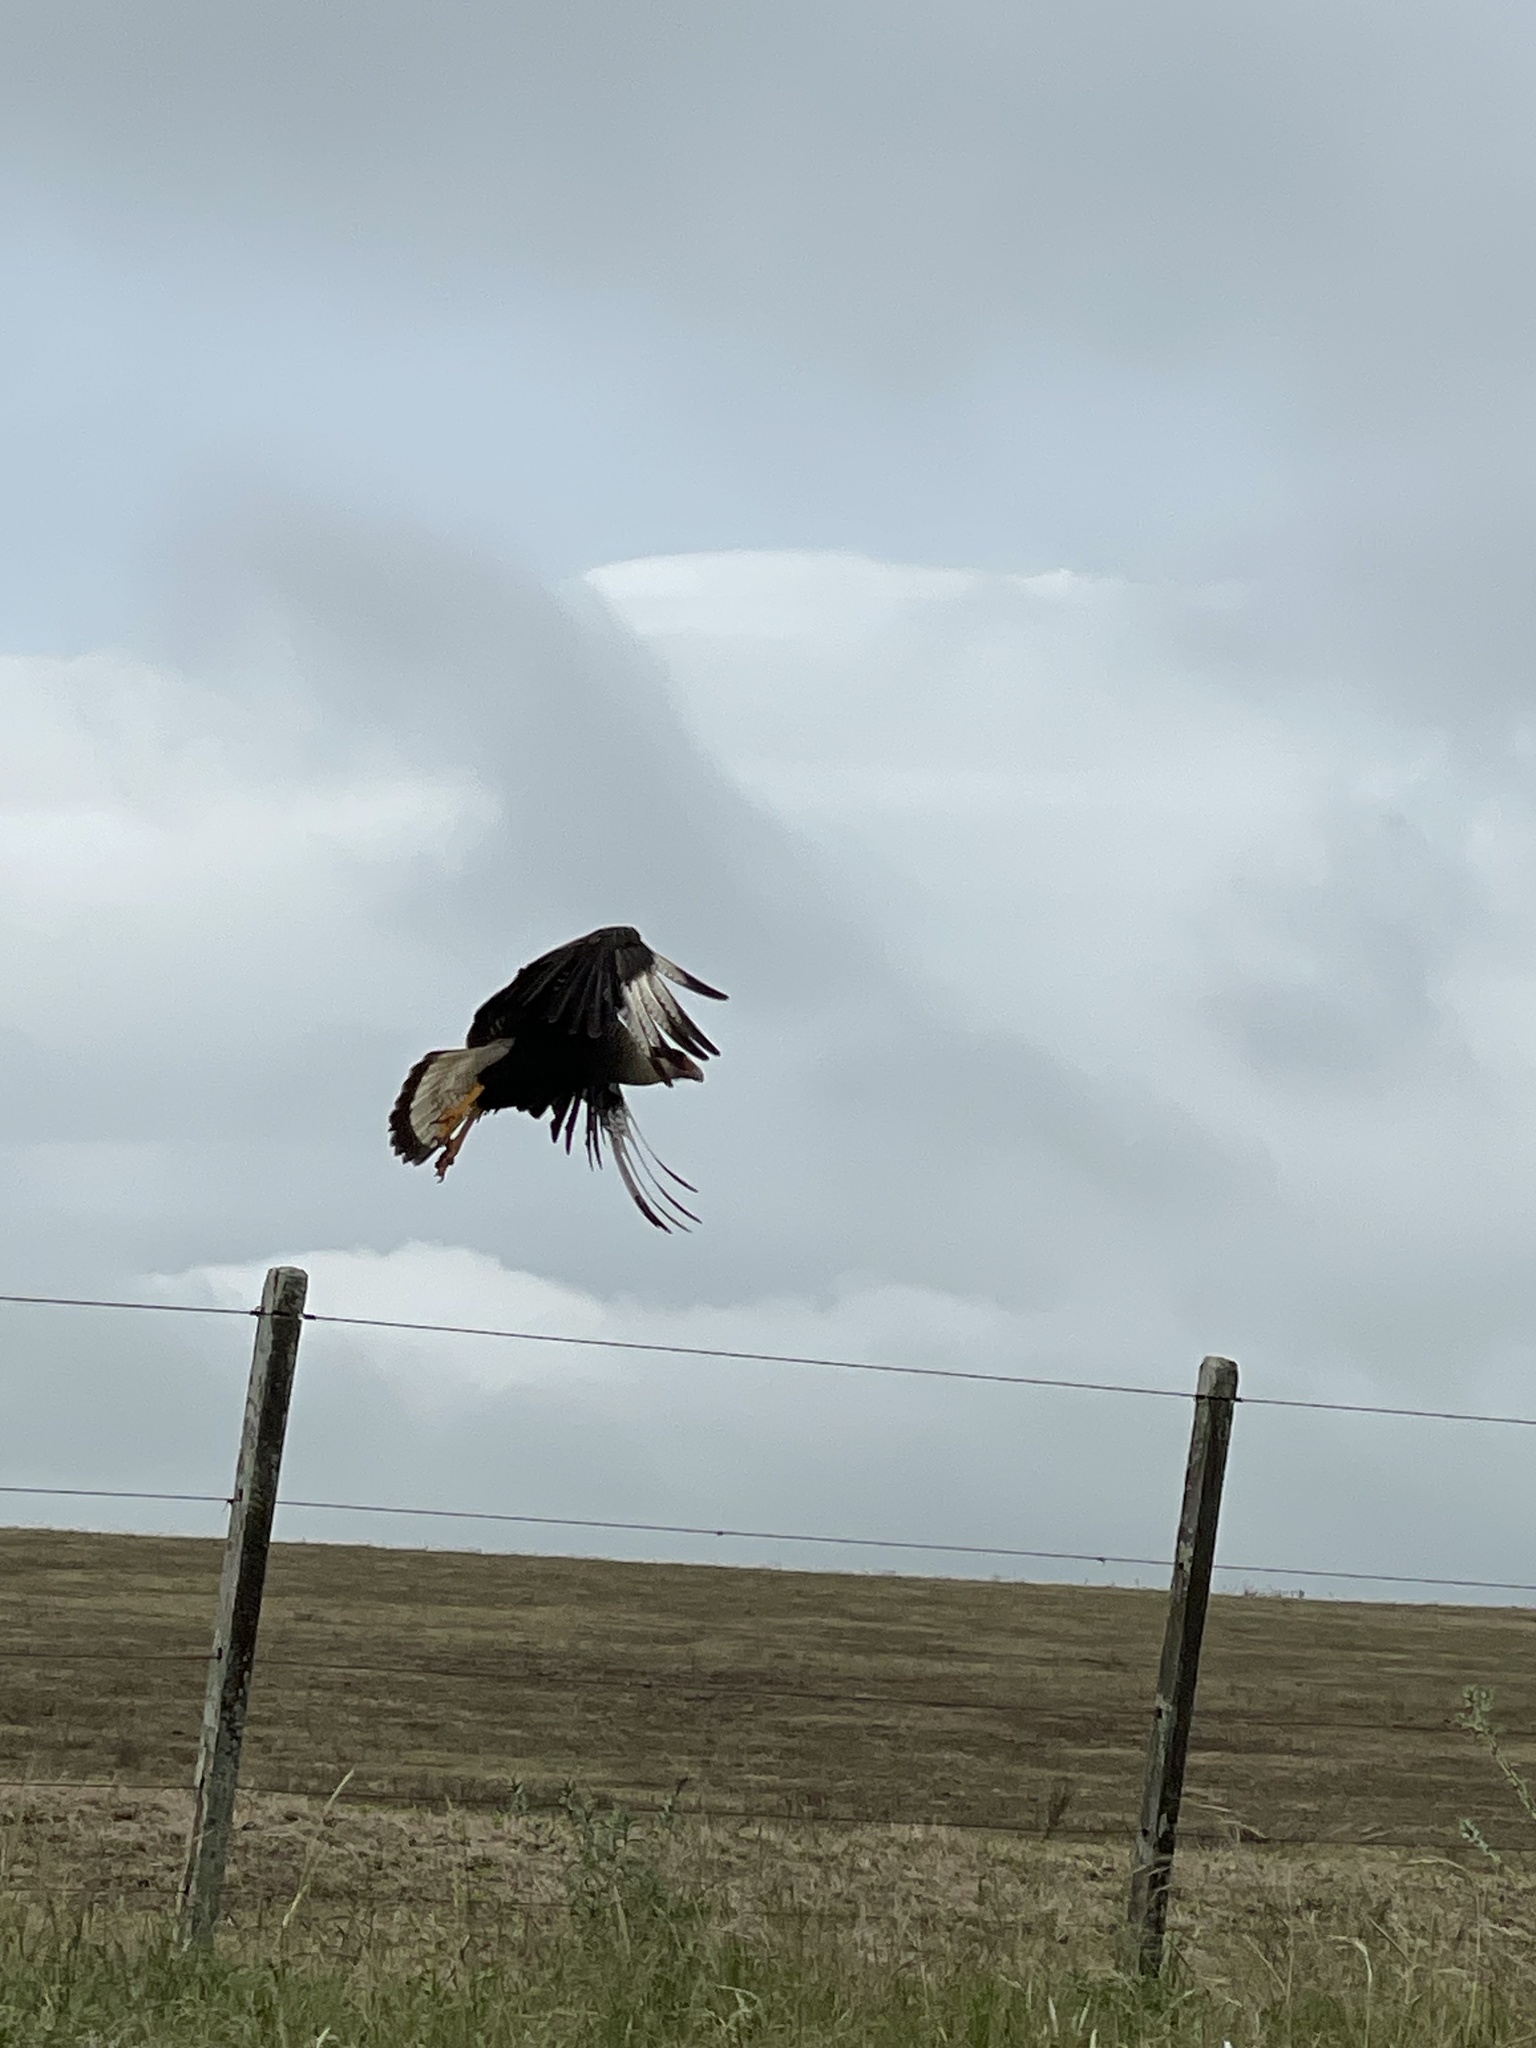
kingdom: Animalia
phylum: Chordata
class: Aves
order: Falconiformes
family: Falconidae
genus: Caracara
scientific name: Caracara plancus
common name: Southern caracara
